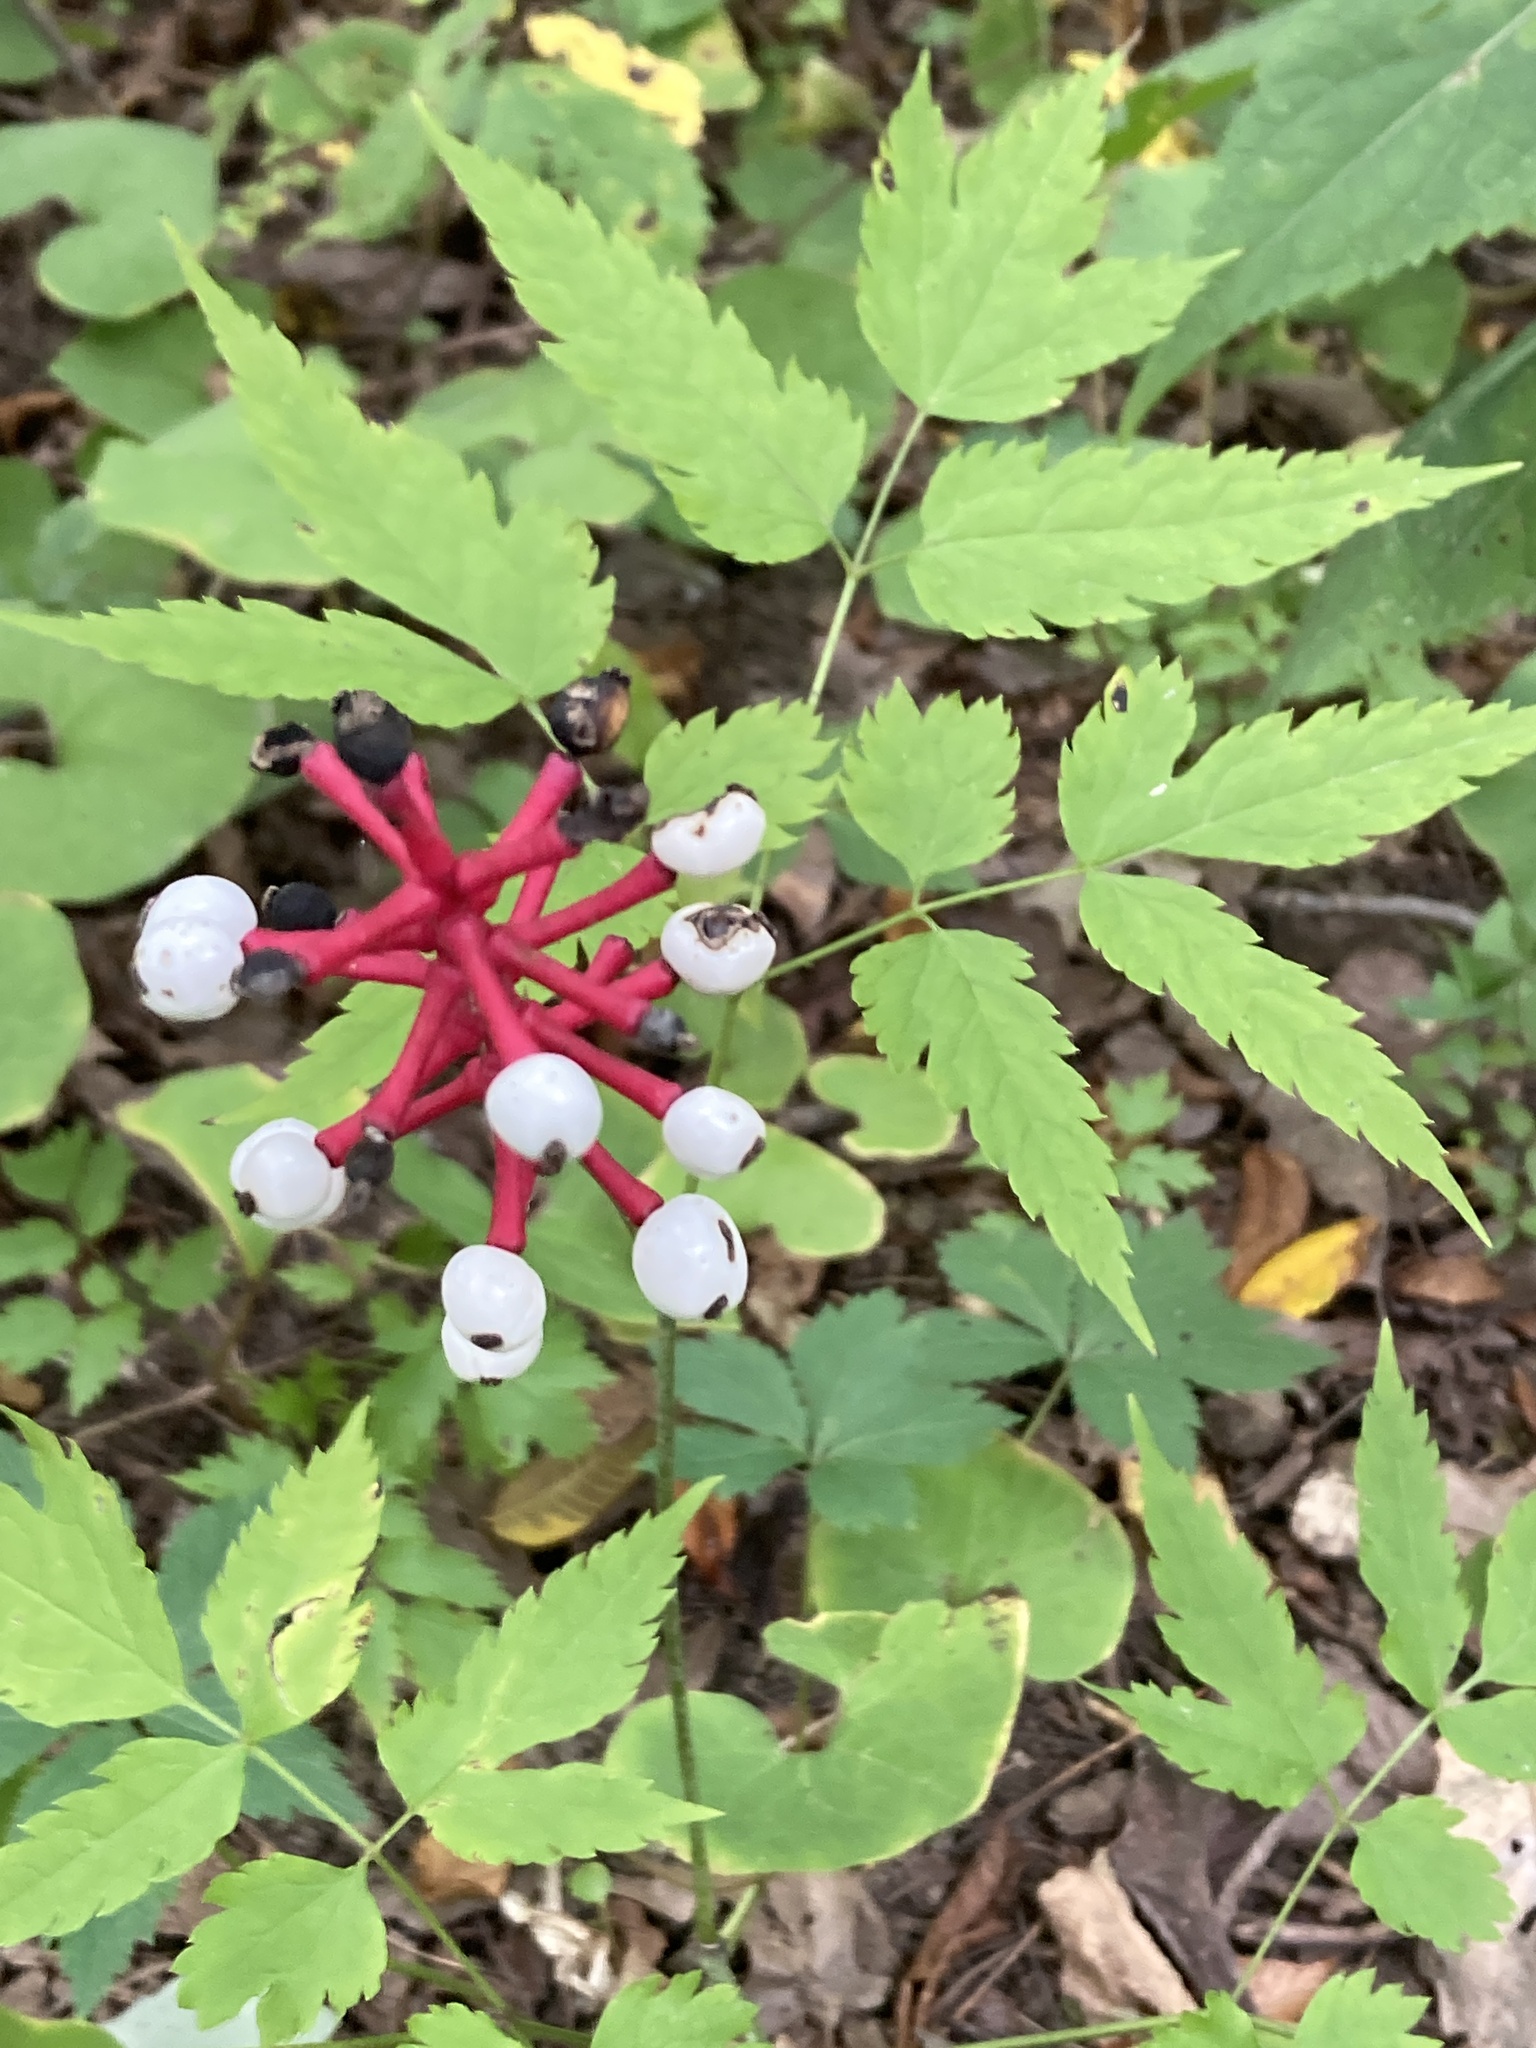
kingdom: Plantae
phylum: Tracheophyta
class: Magnoliopsida
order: Ranunculales
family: Ranunculaceae
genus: Actaea
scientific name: Actaea pachypoda
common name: Doll's-eyes
